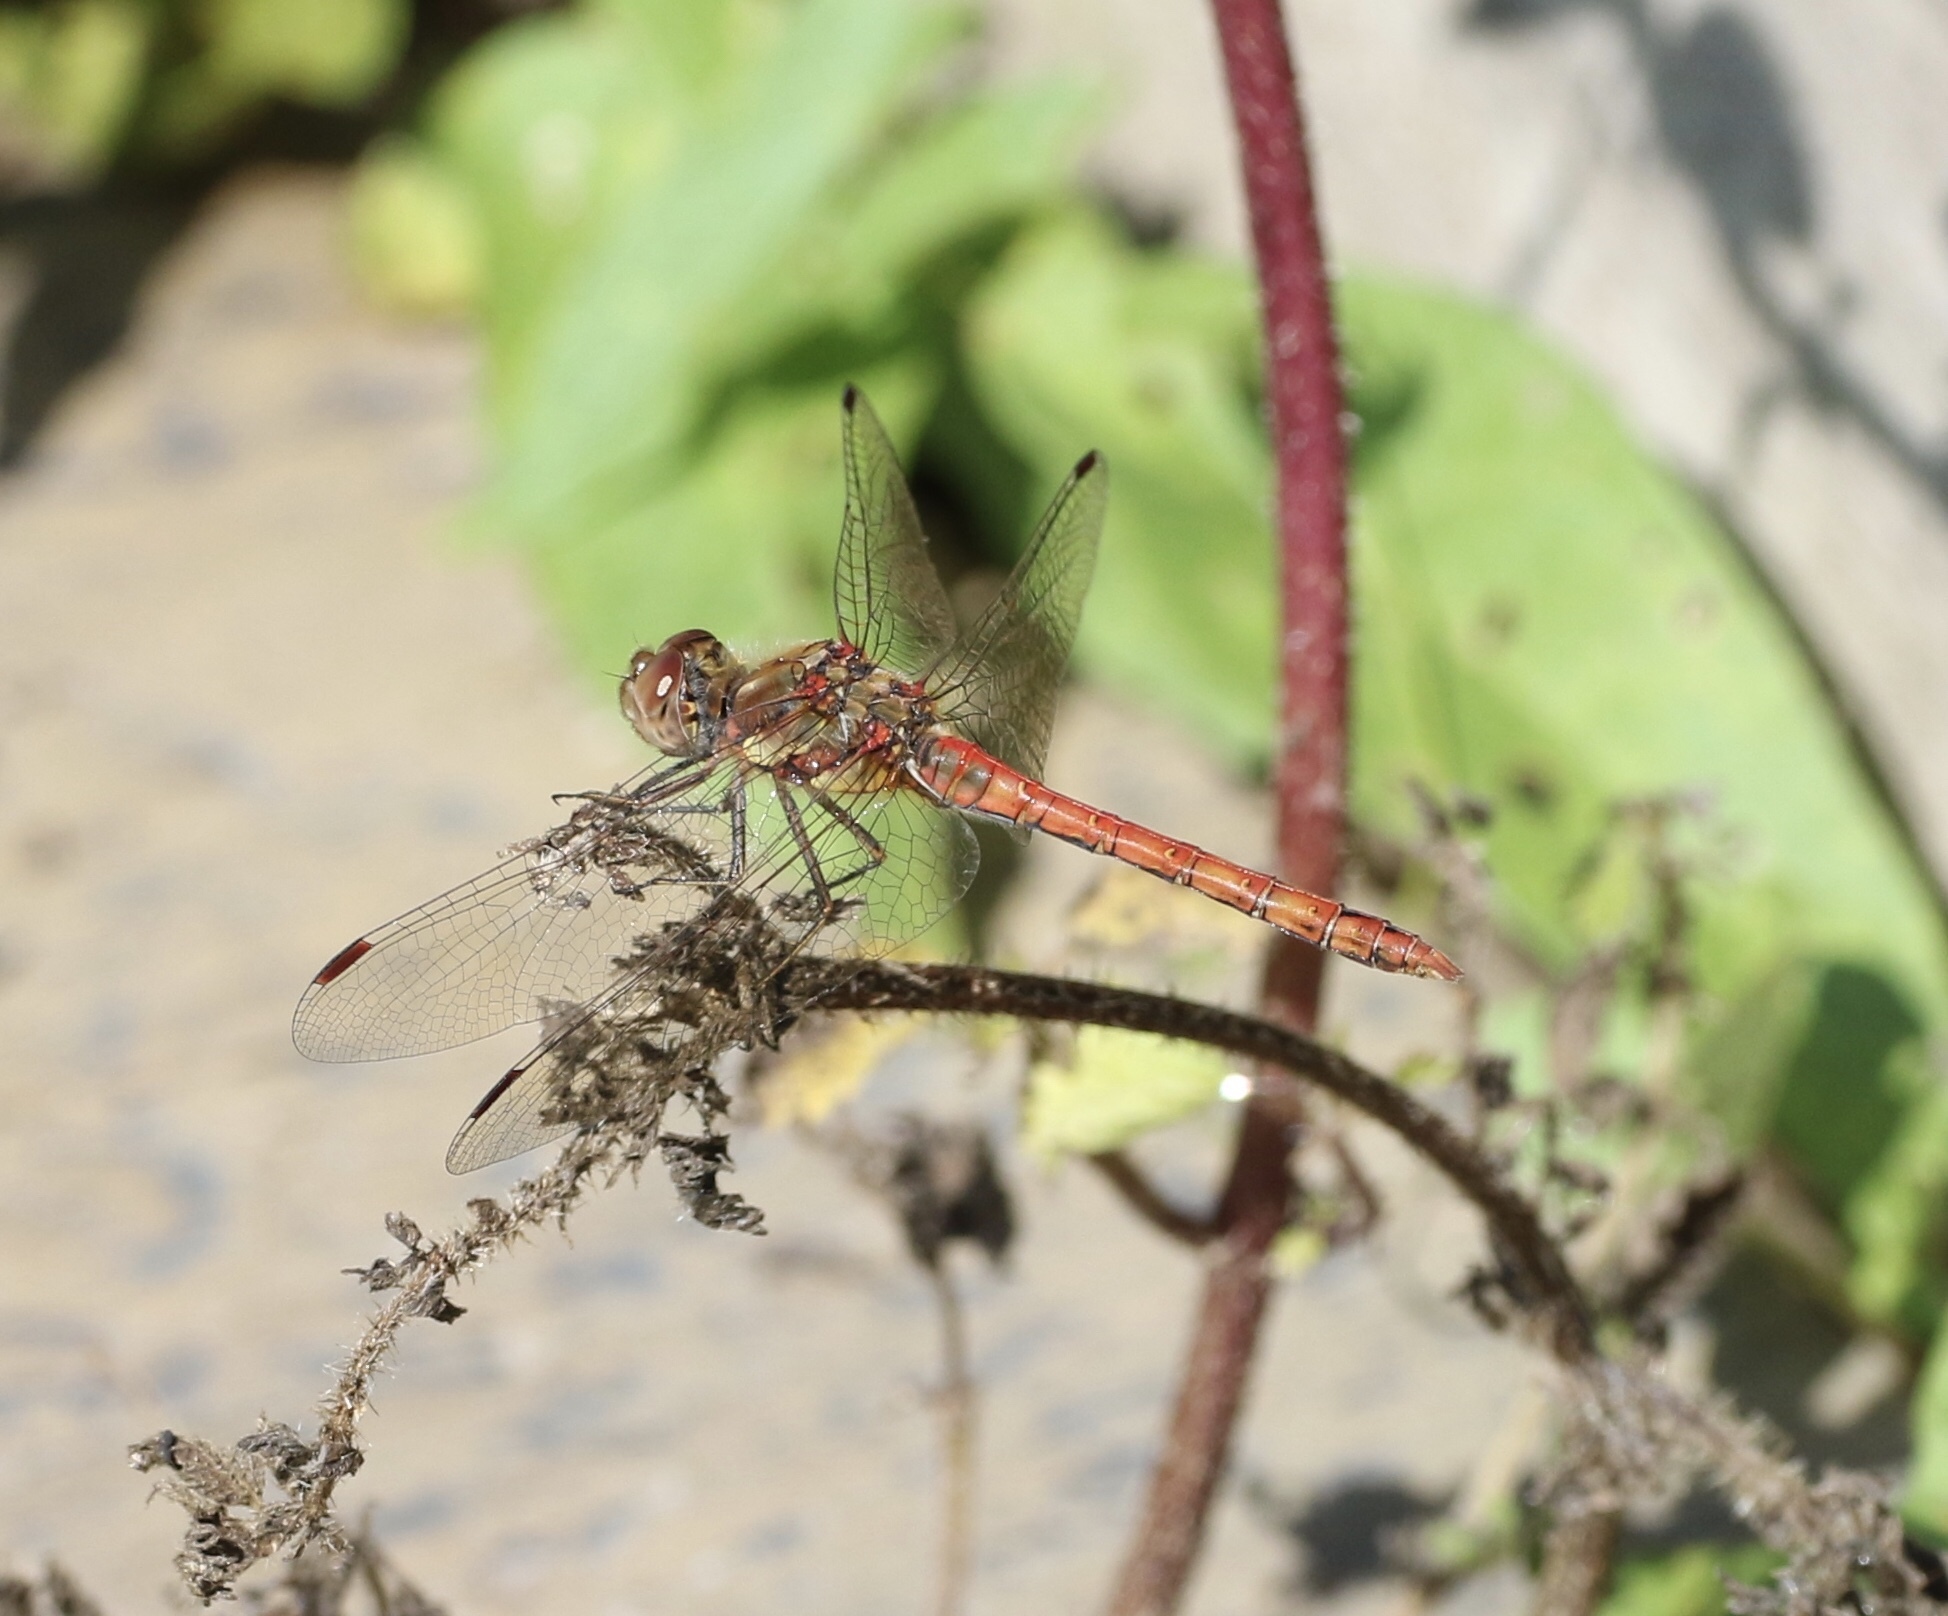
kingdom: Animalia
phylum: Arthropoda
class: Insecta
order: Odonata
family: Libellulidae
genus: Sympetrum
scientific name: Sympetrum striolatum
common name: Common darter
